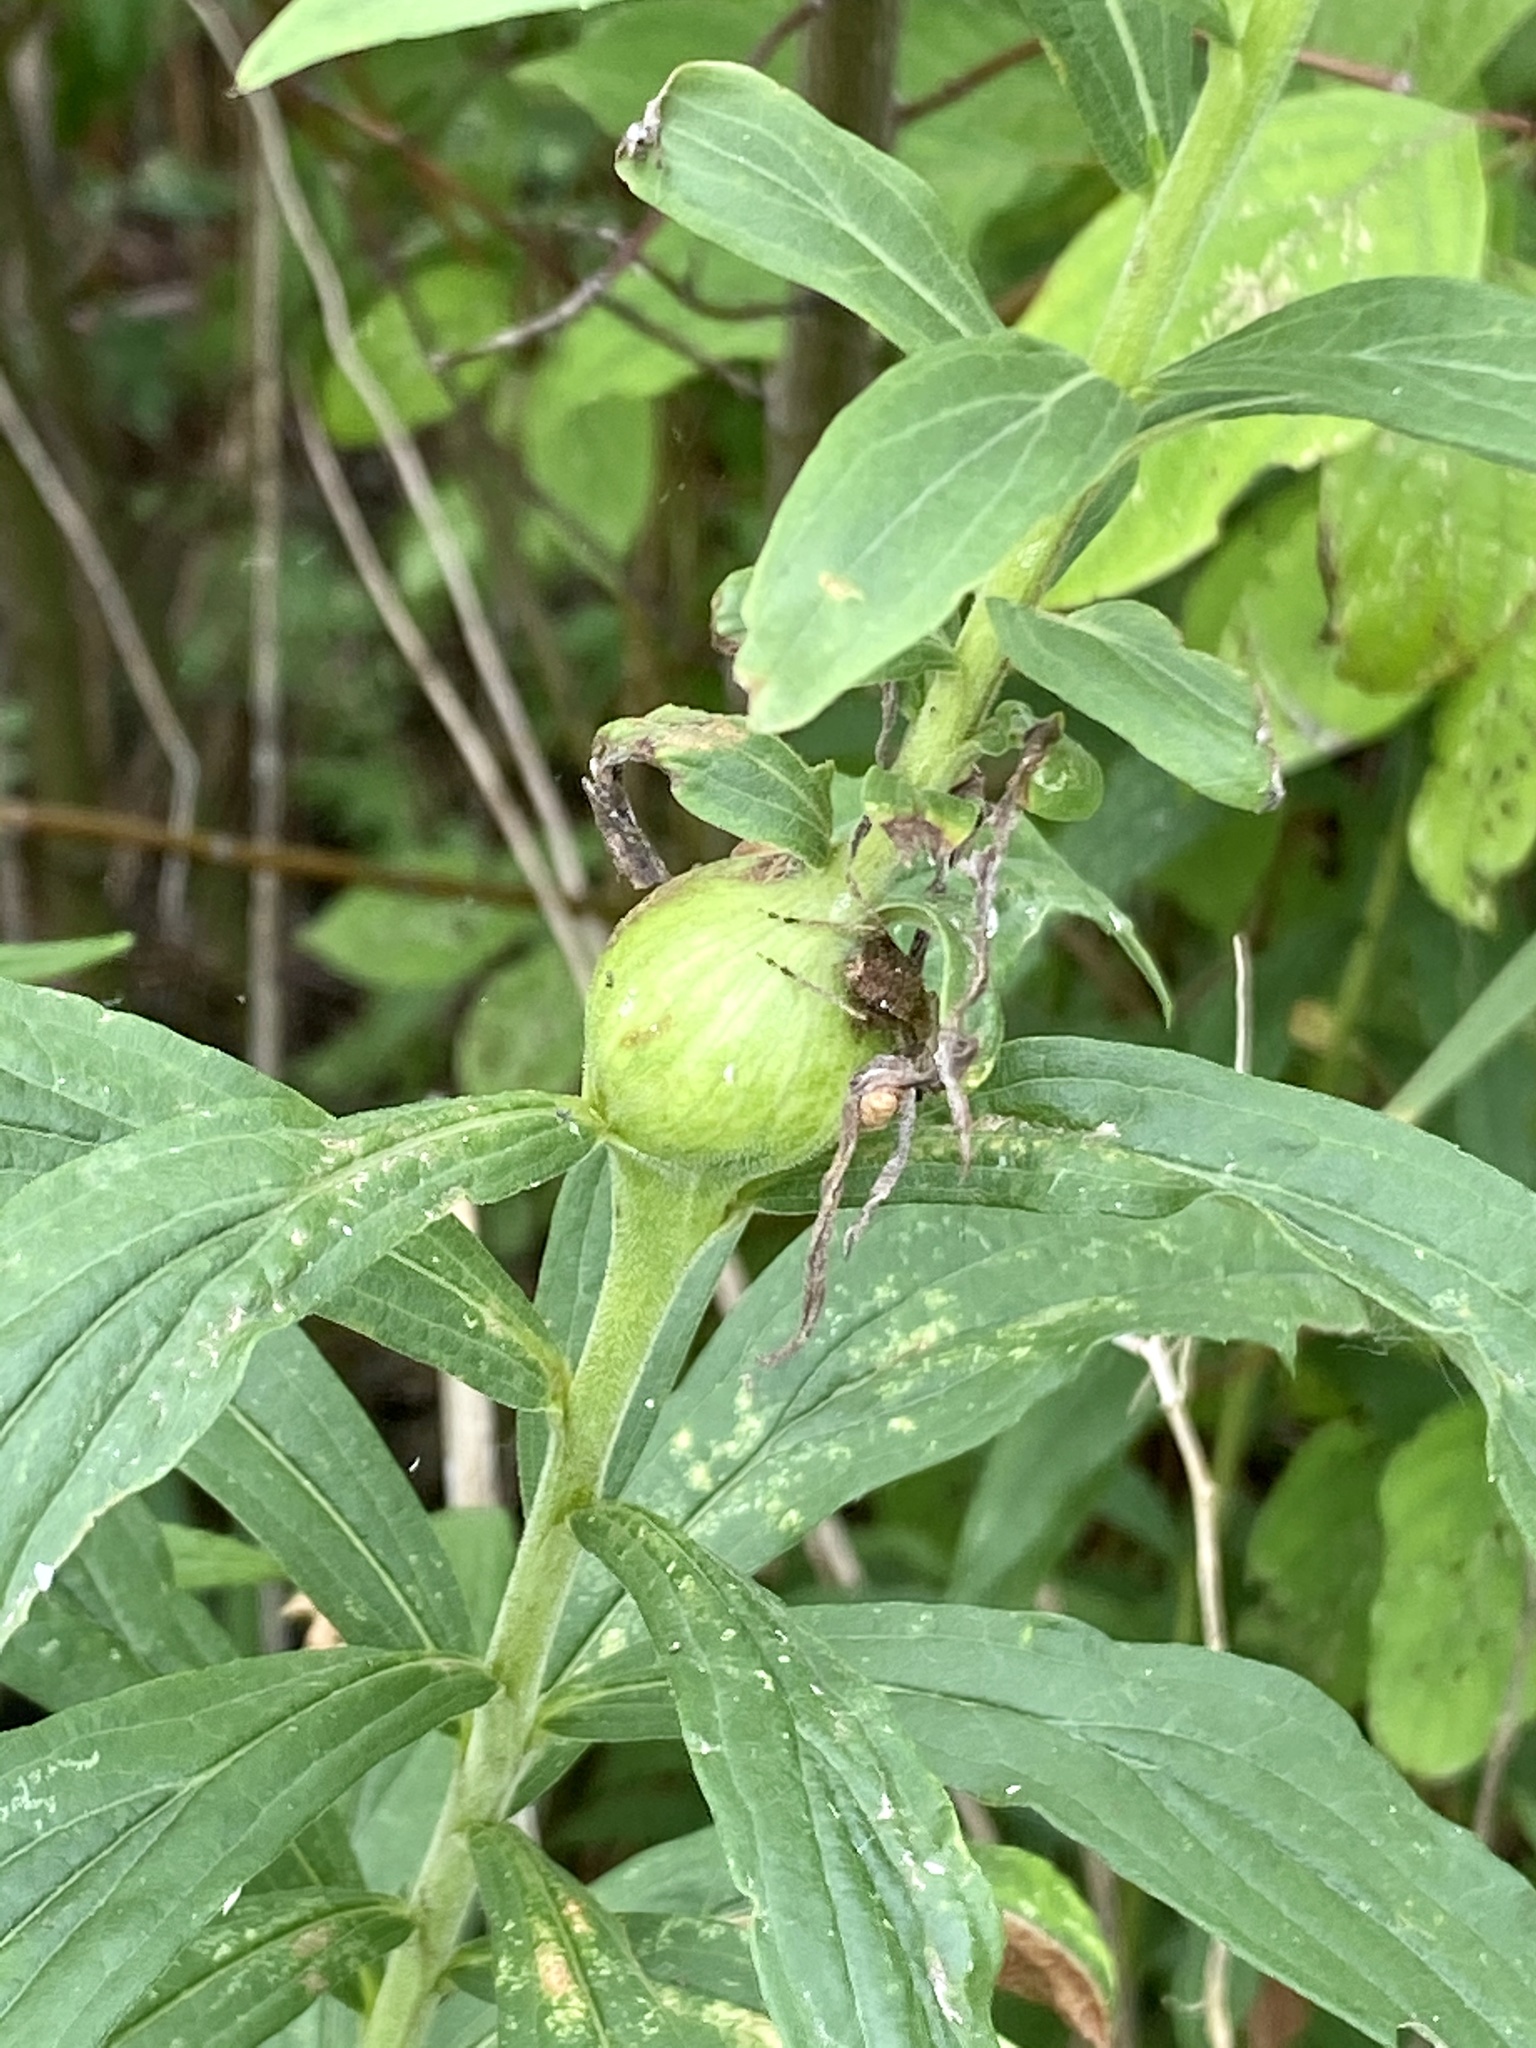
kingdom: Animalia
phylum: Arthropoda
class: Insecta
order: Diptera
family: Tephritidae
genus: Eurosta
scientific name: Eurosta solidaginis
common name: Goldenrod gall fly
